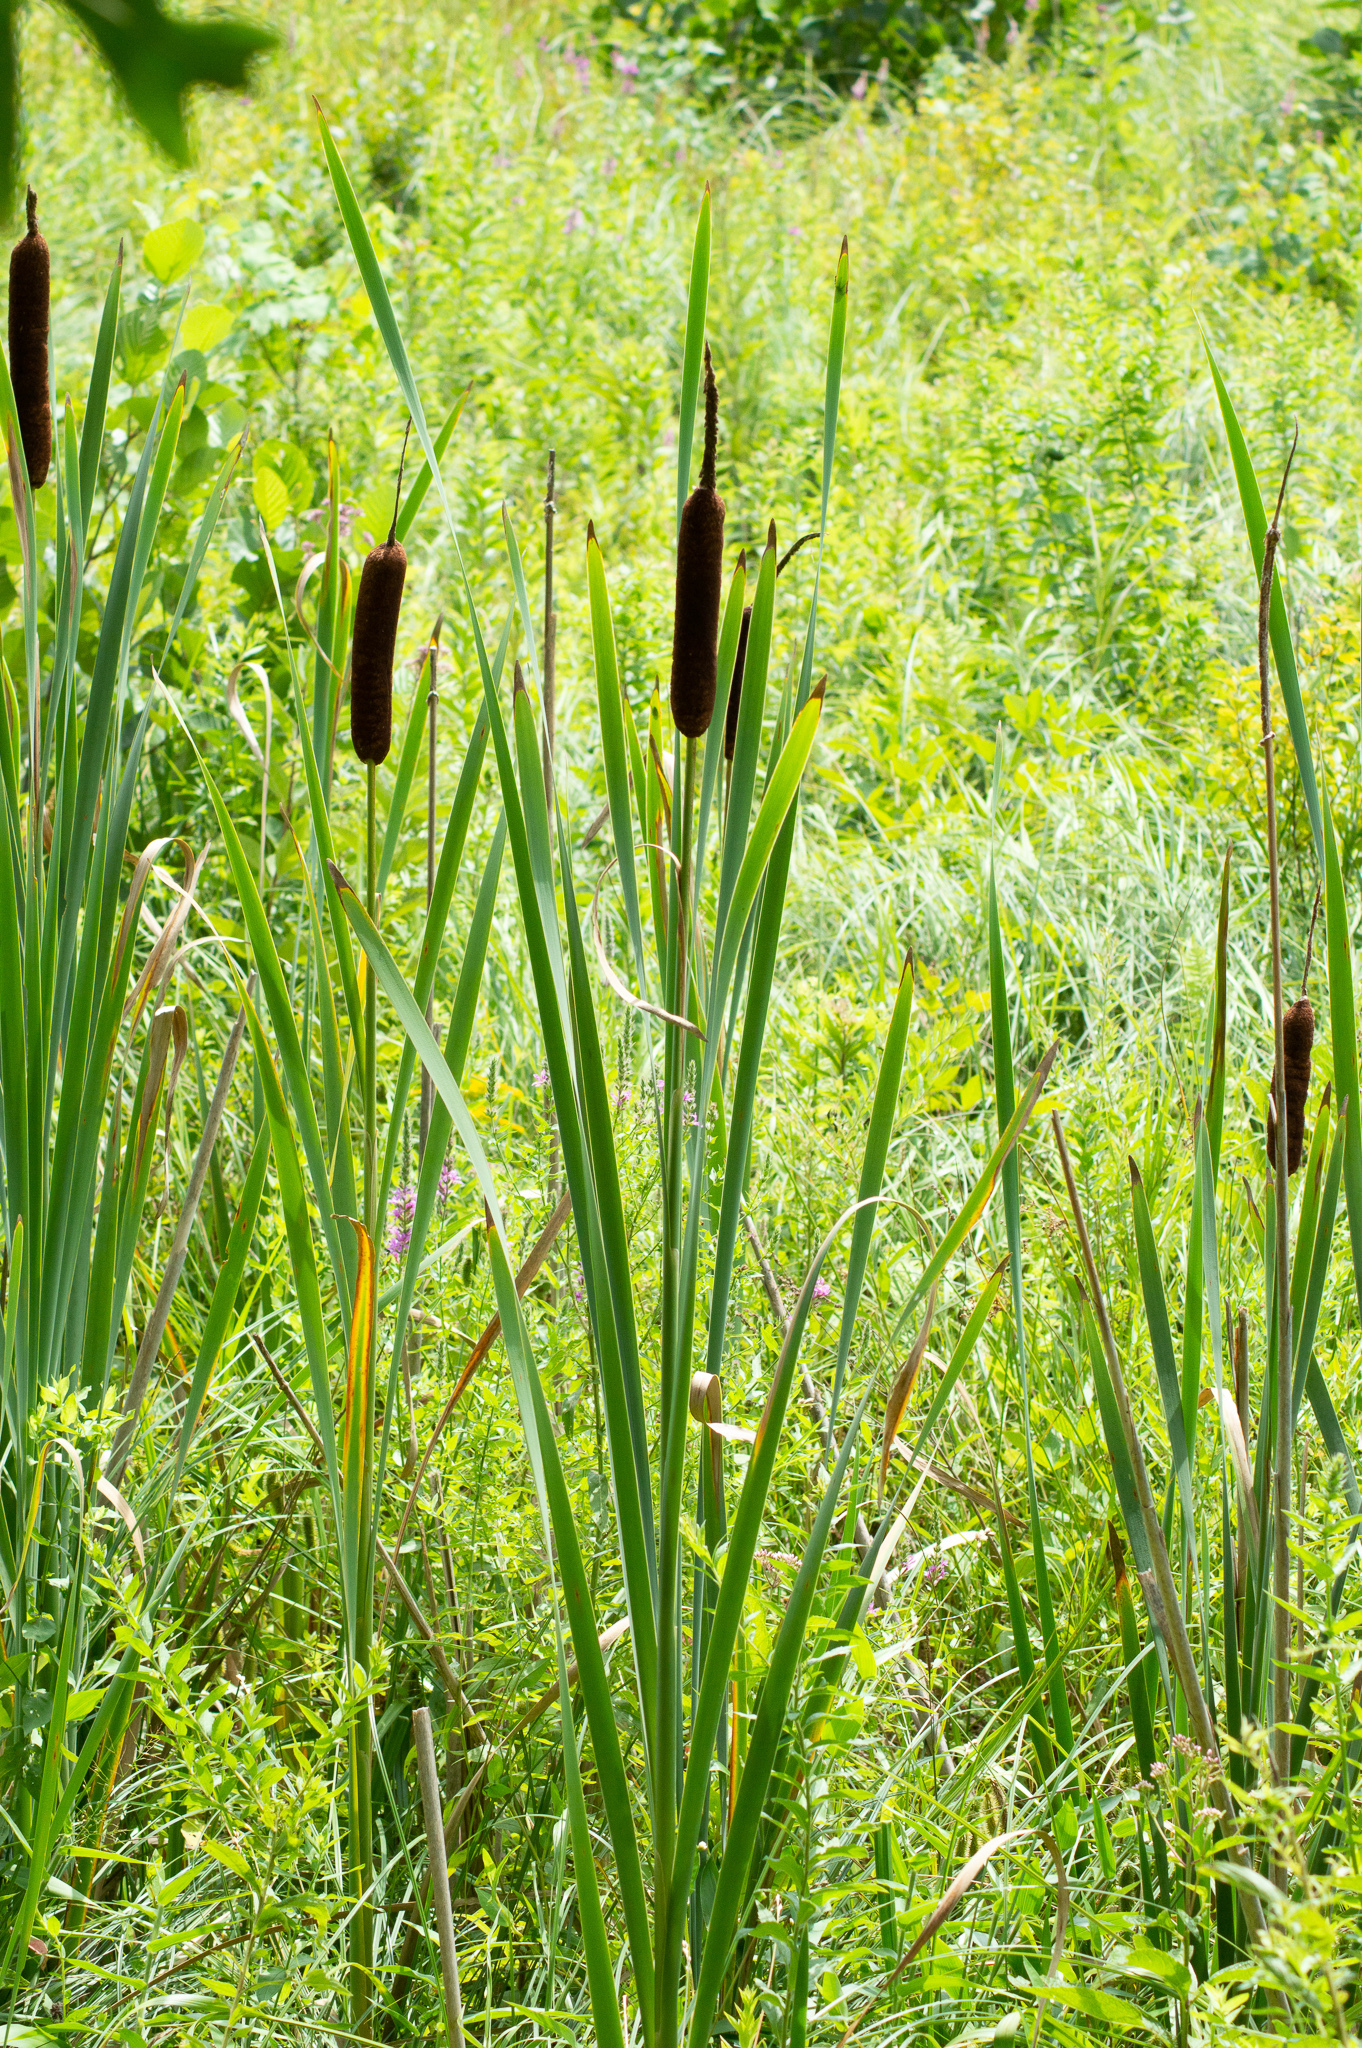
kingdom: Plantae
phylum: Tracheophyta
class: Liliopsida
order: Poales
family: Typhaceae
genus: Typha
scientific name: Typha latifolia
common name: Broadleaf cattail
